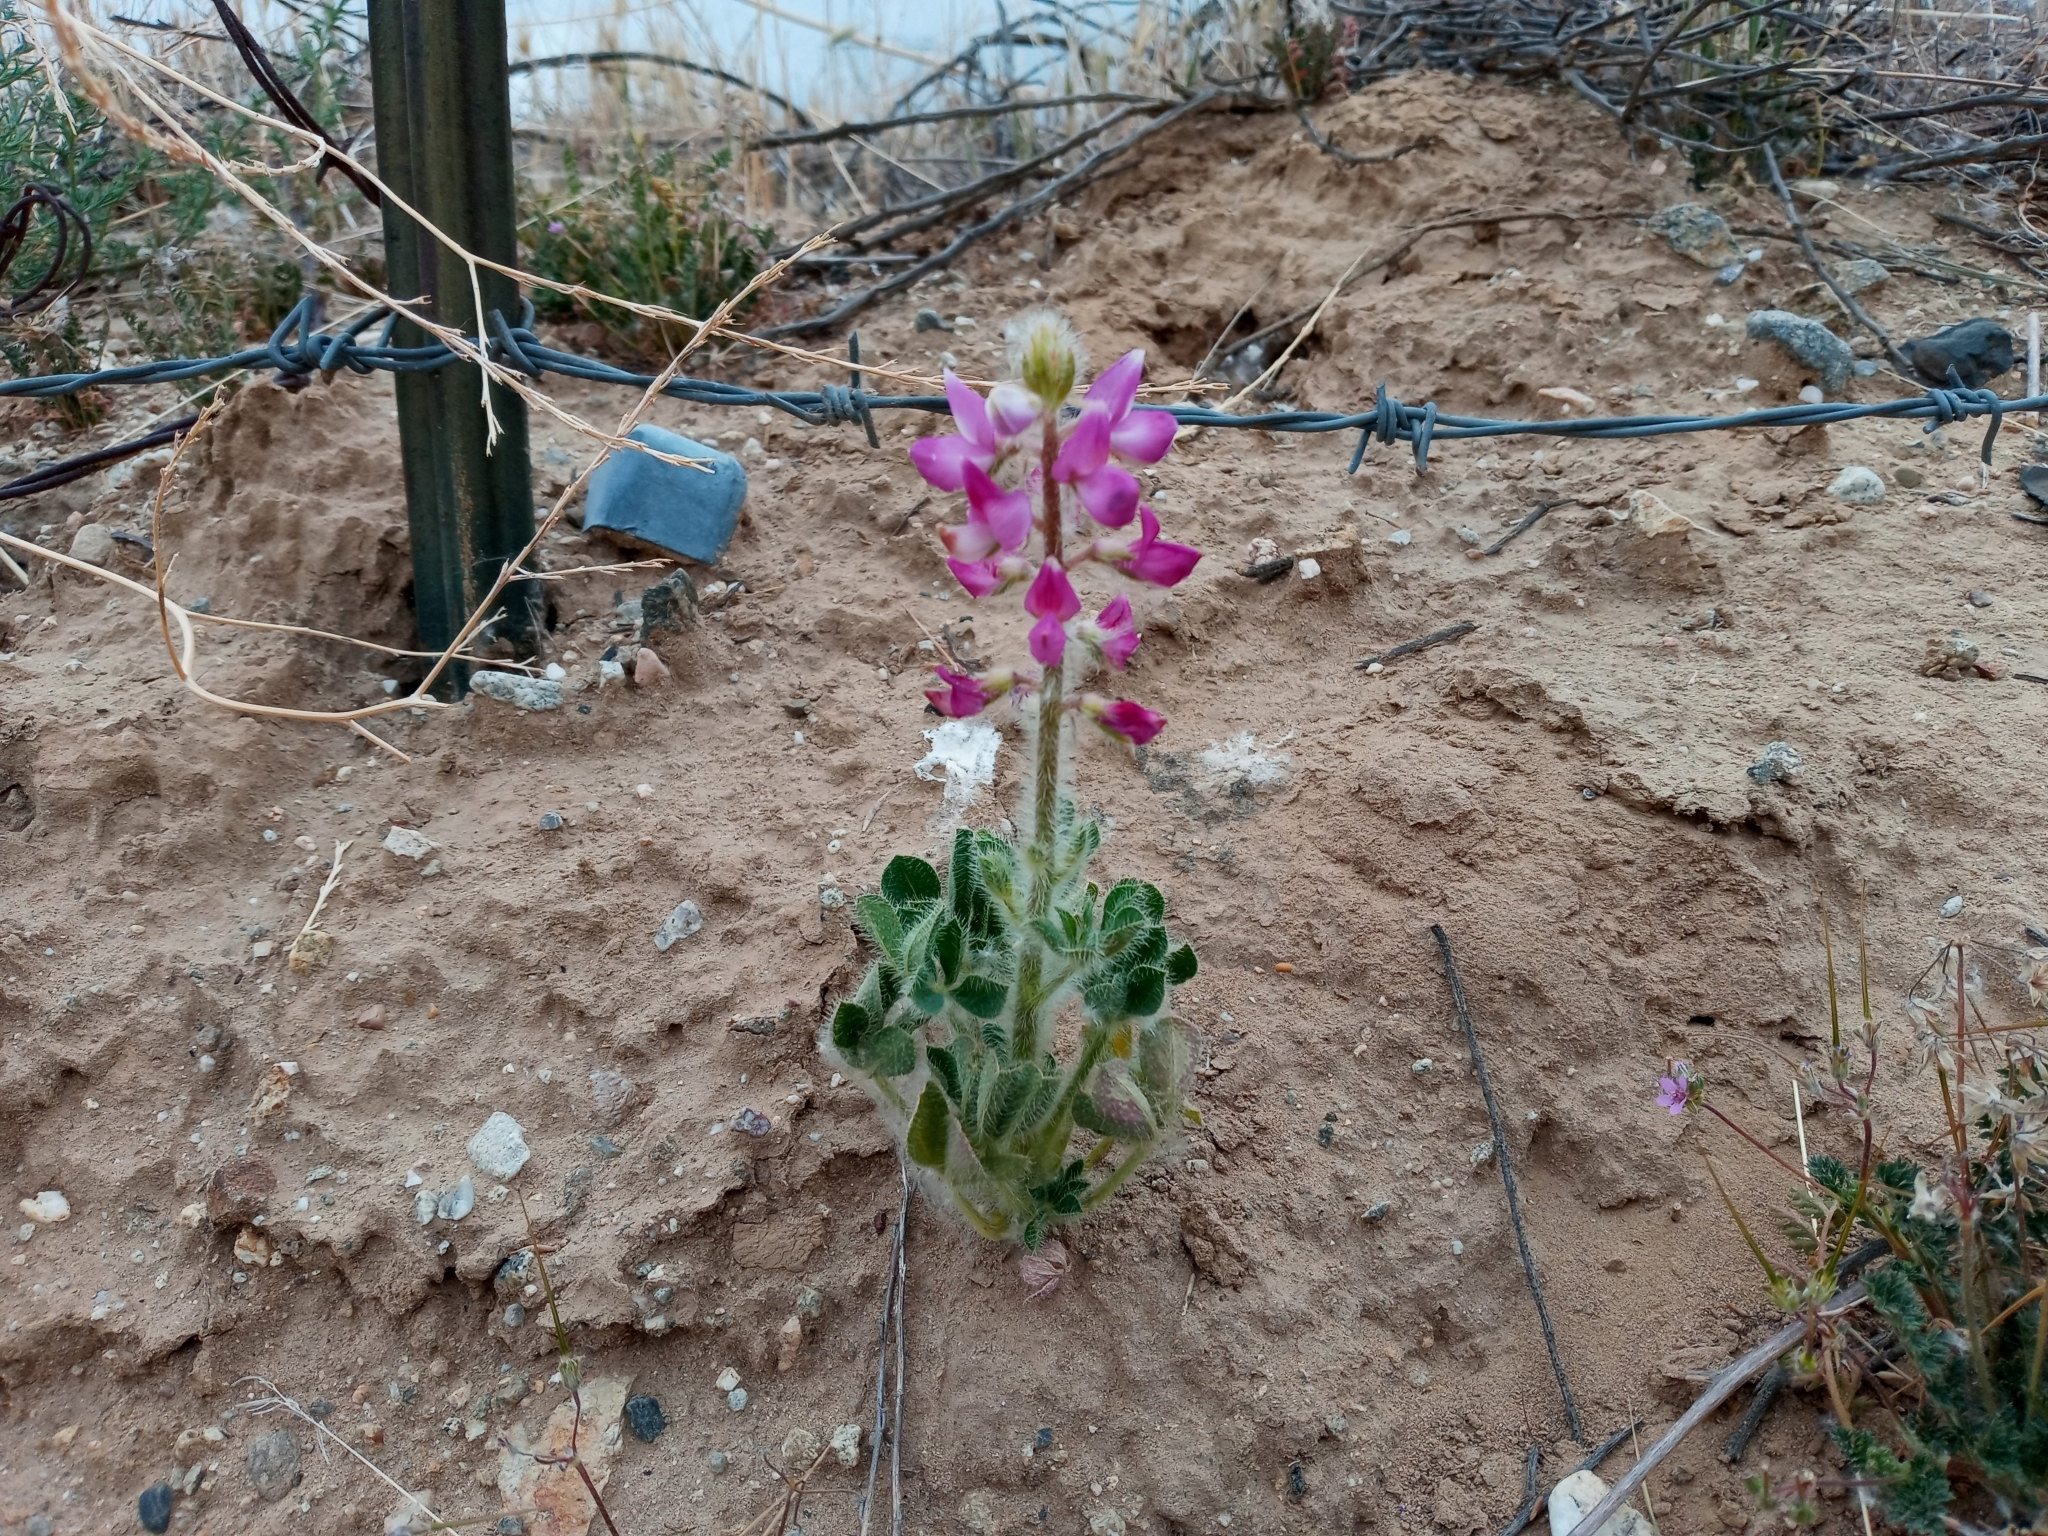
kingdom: Plantae
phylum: Tracheophyta
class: Magnoliopsida
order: Fabales
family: Fabaceae
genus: Lupinus
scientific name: Lupinus hirsutissimus
